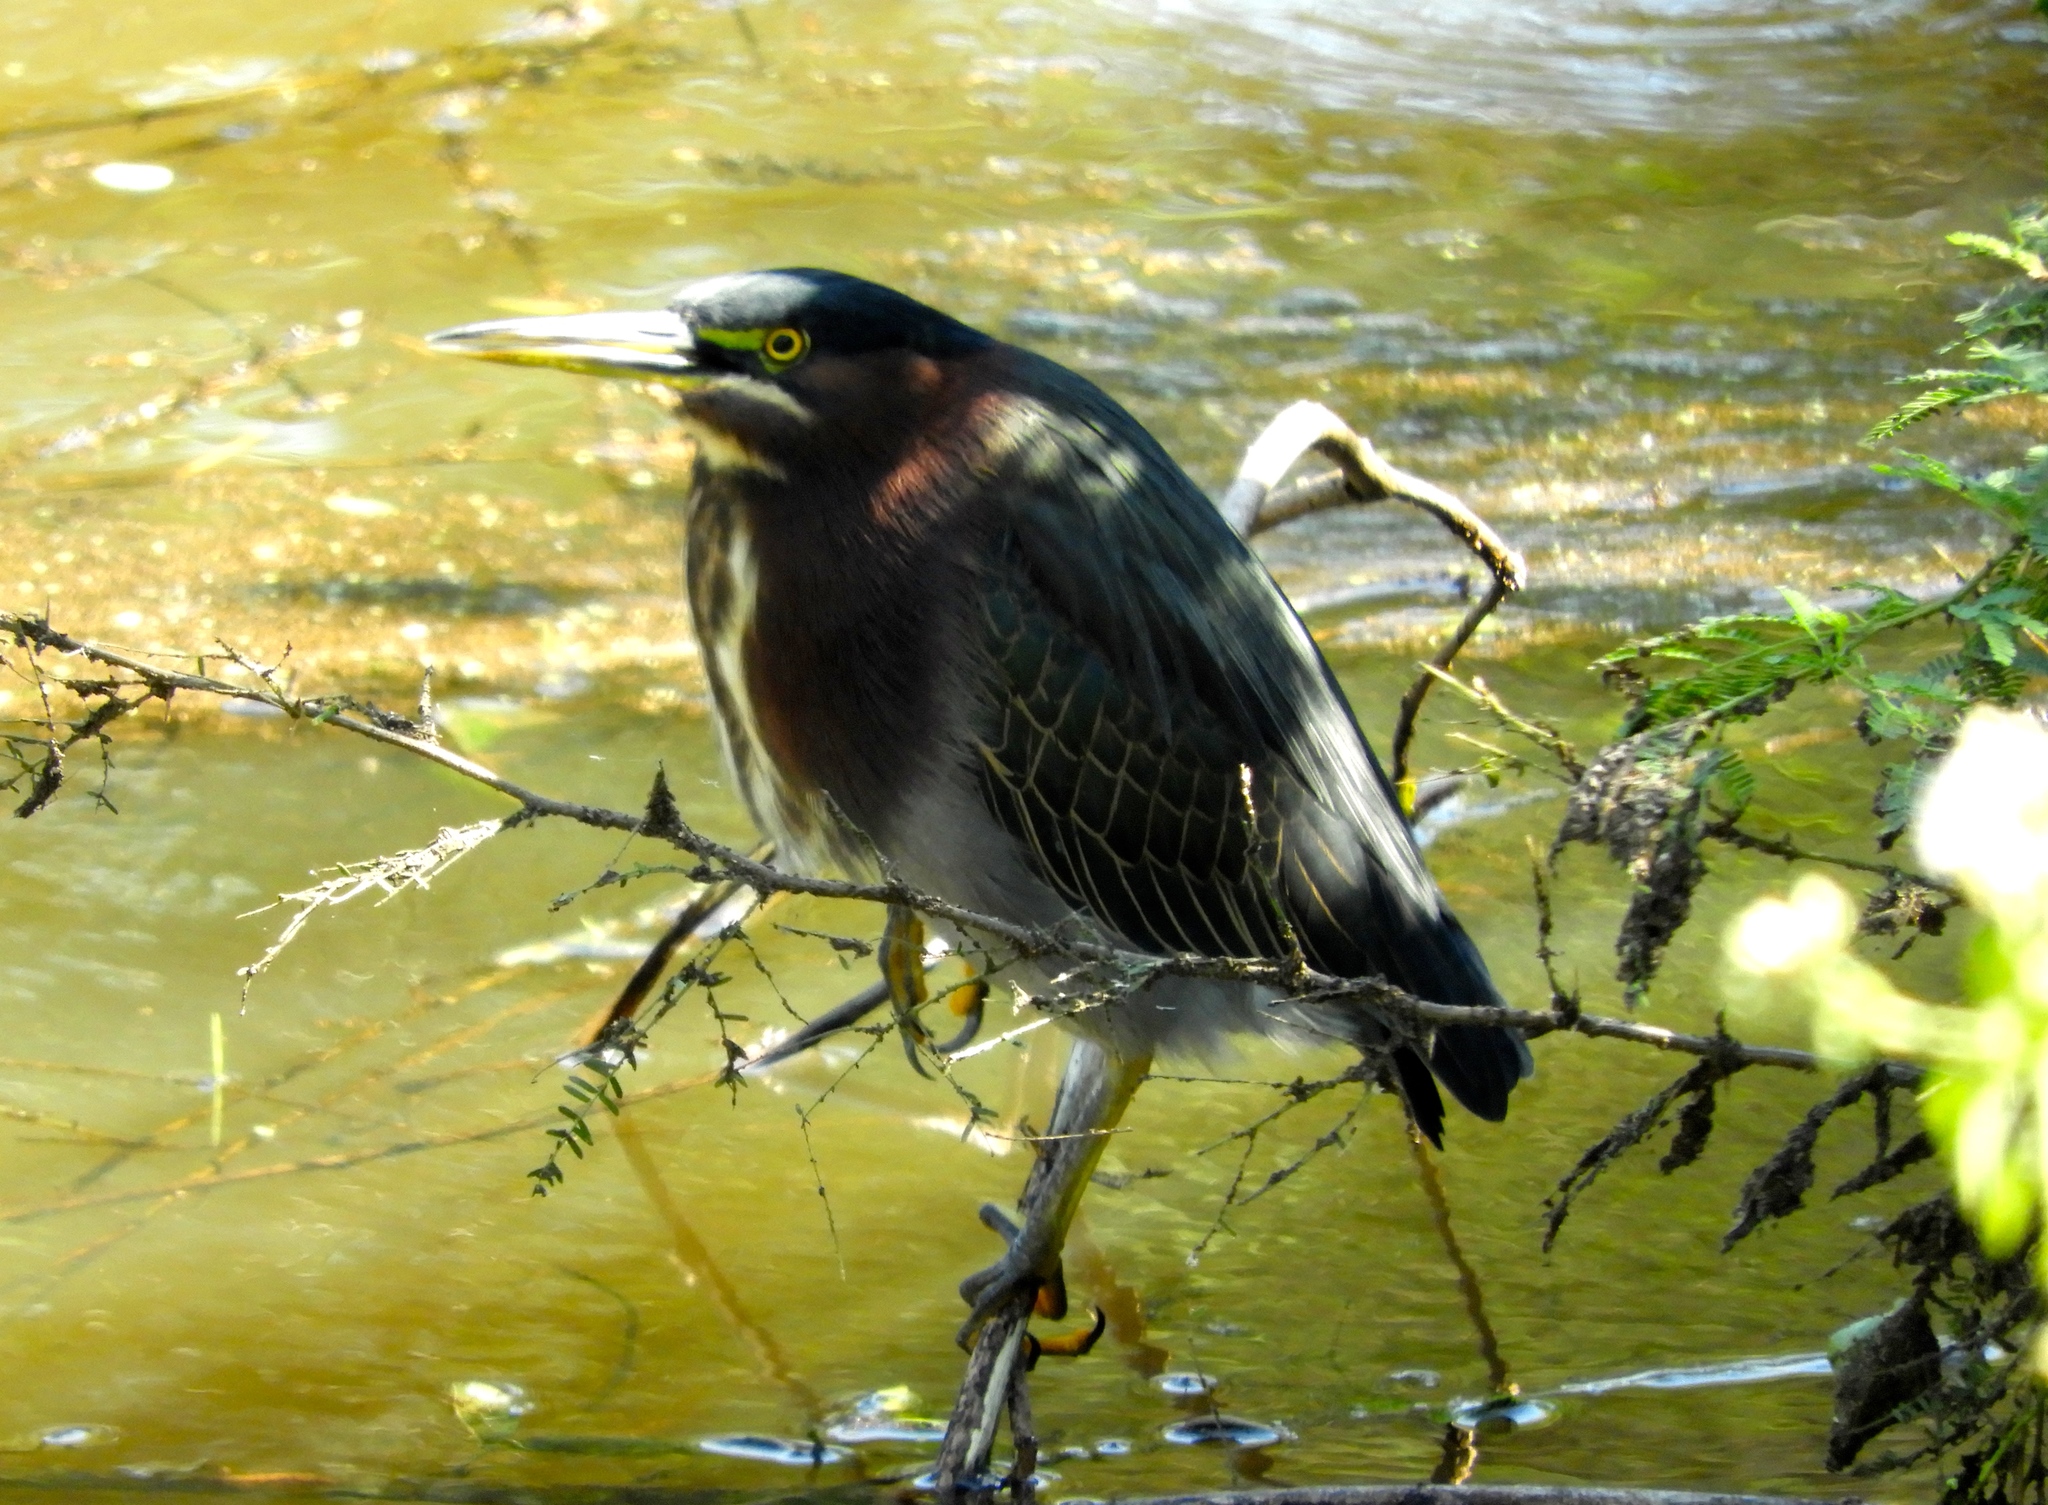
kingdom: Animalia
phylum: Chordata
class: Aves
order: Pelecaniformes
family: Ardeidae
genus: Butorides
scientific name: Butorides virescens
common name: Green heron
